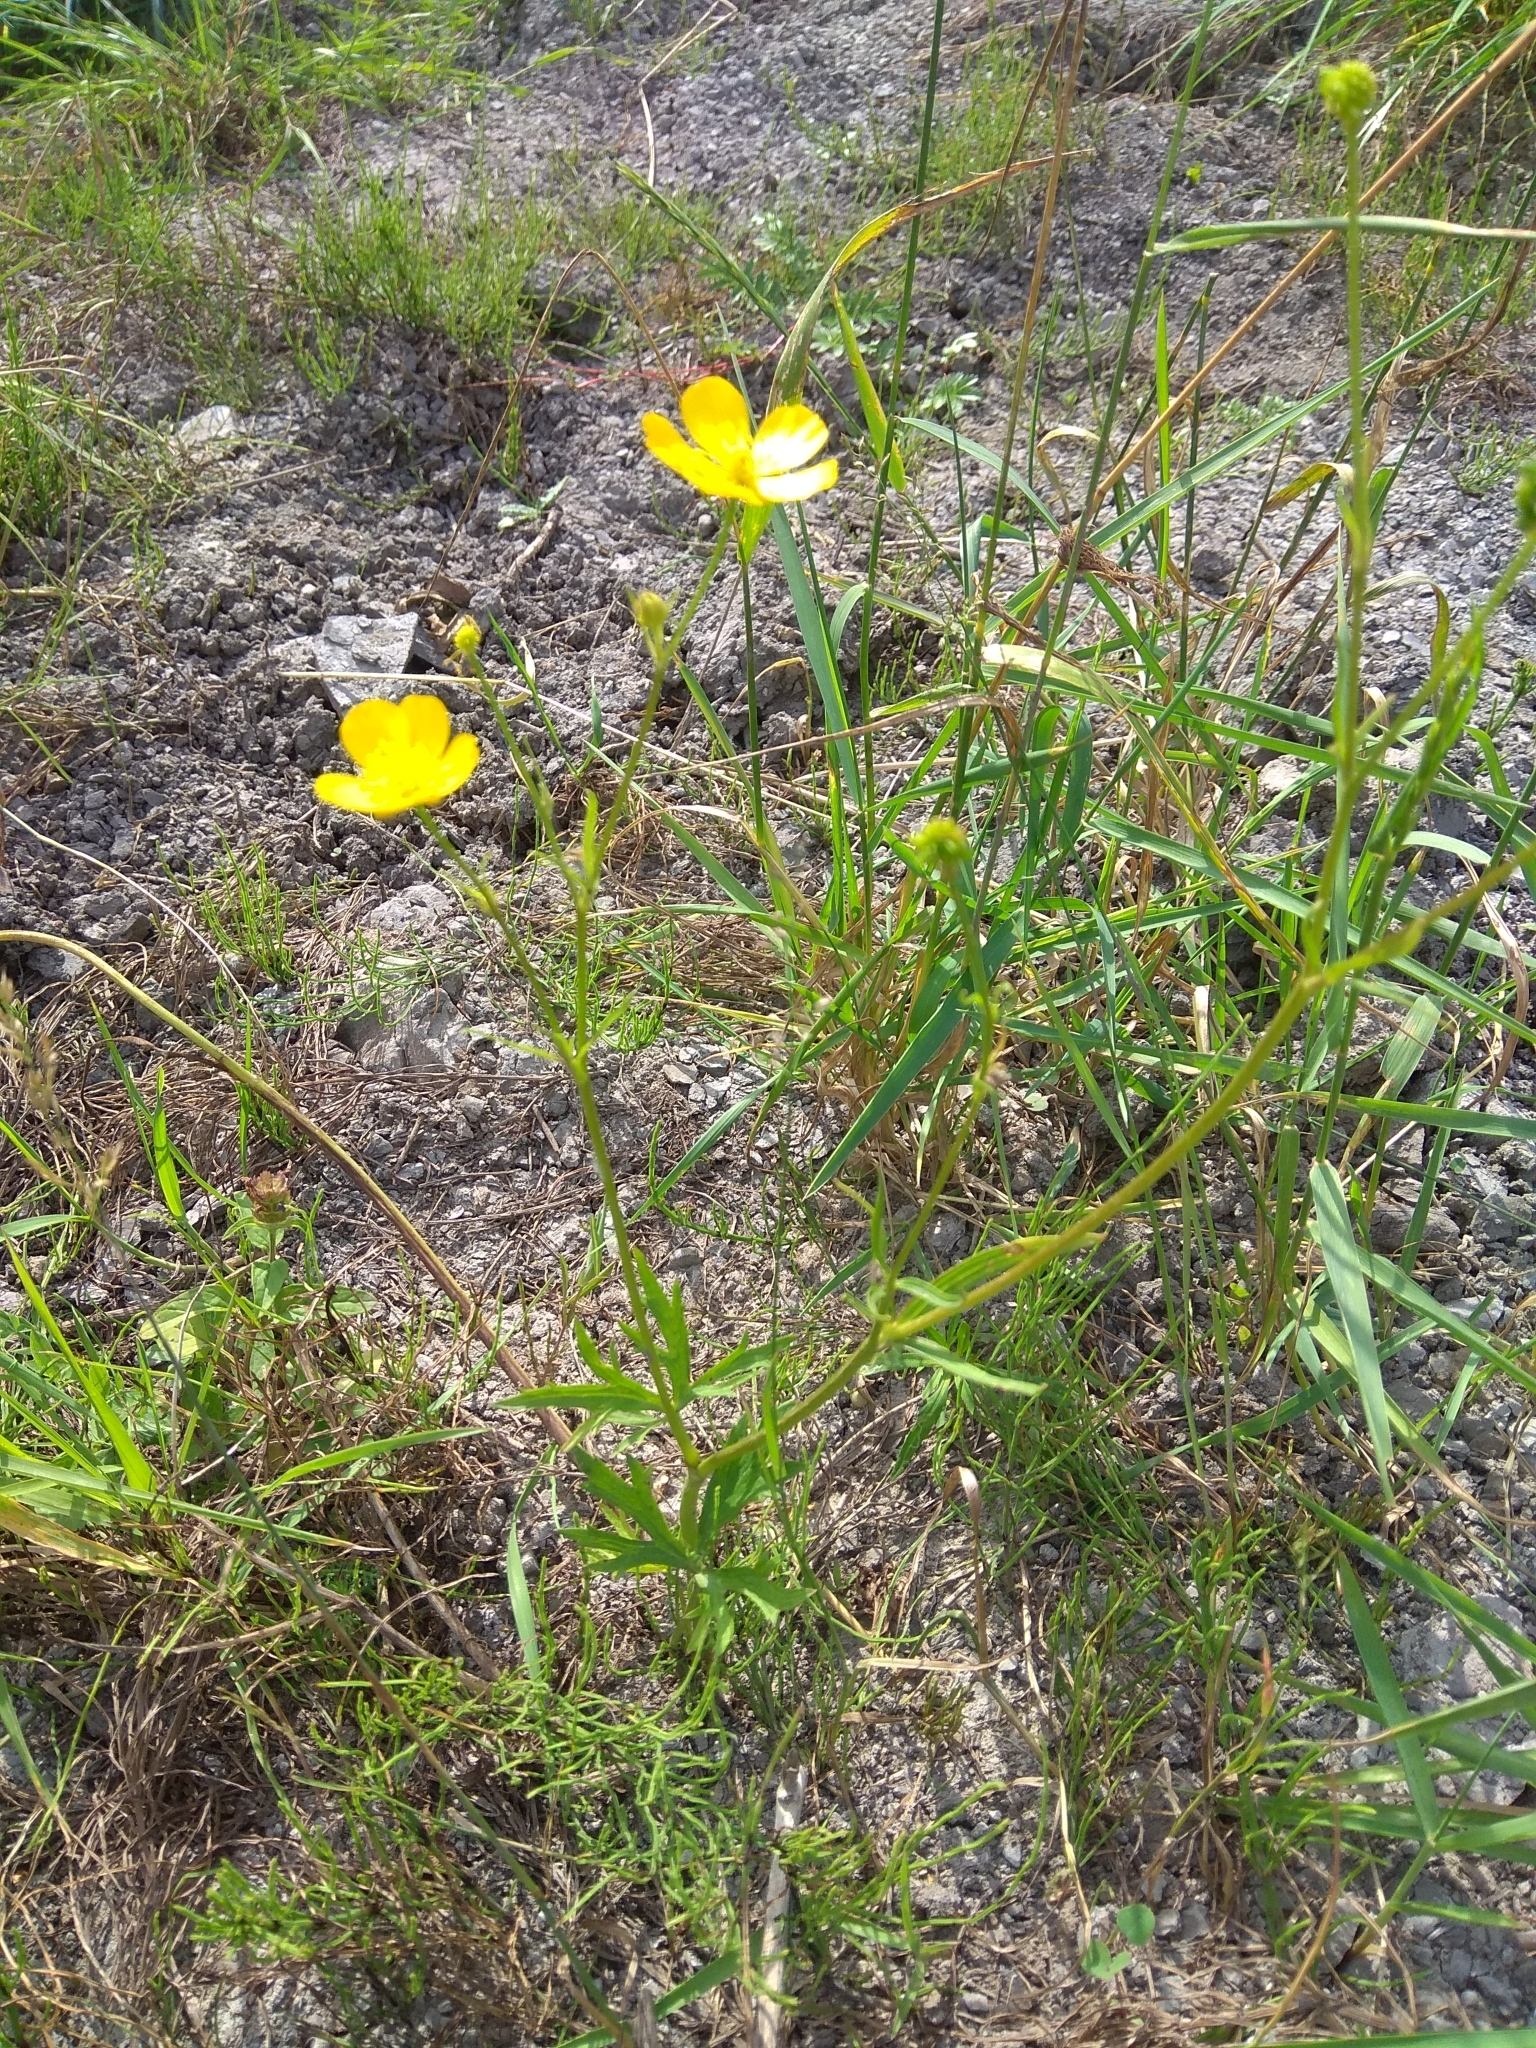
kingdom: Plantae
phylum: Tracheophyta
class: Magnoliopsida
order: Ranunculales
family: Ranunculaceae
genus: Ranunculus
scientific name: Ranunculus polyanthemos
